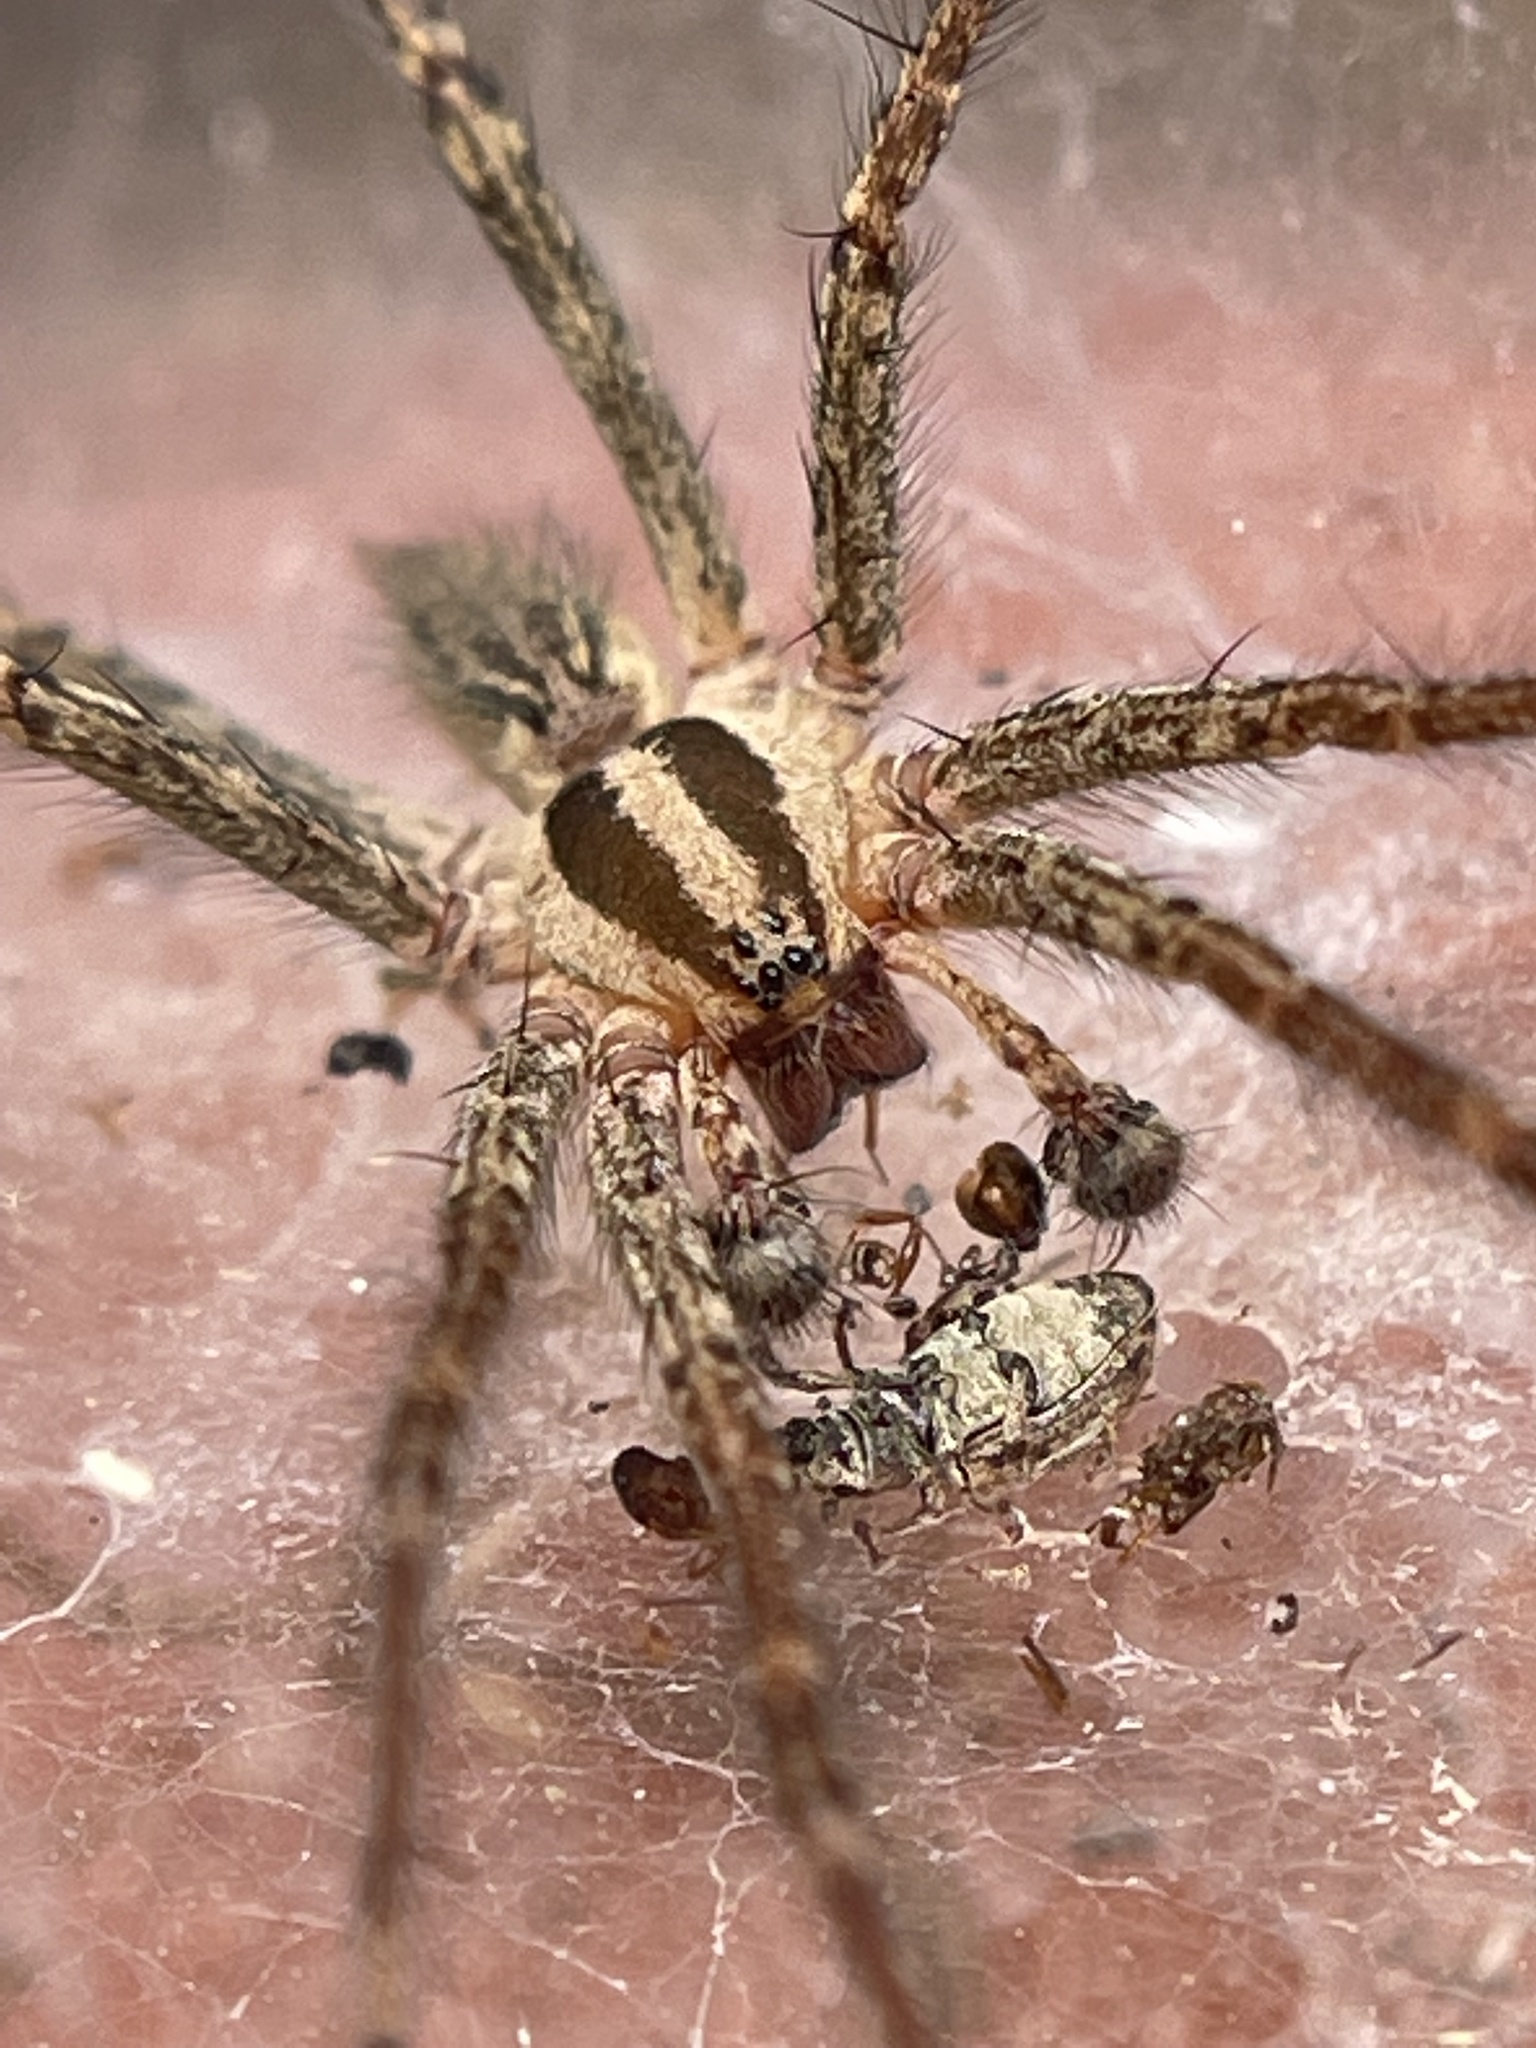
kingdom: Animalia
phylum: Arthropoda
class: Arachnida
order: Araneae
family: Agelenidae
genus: Agelenopsis
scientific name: Agelenopsis
